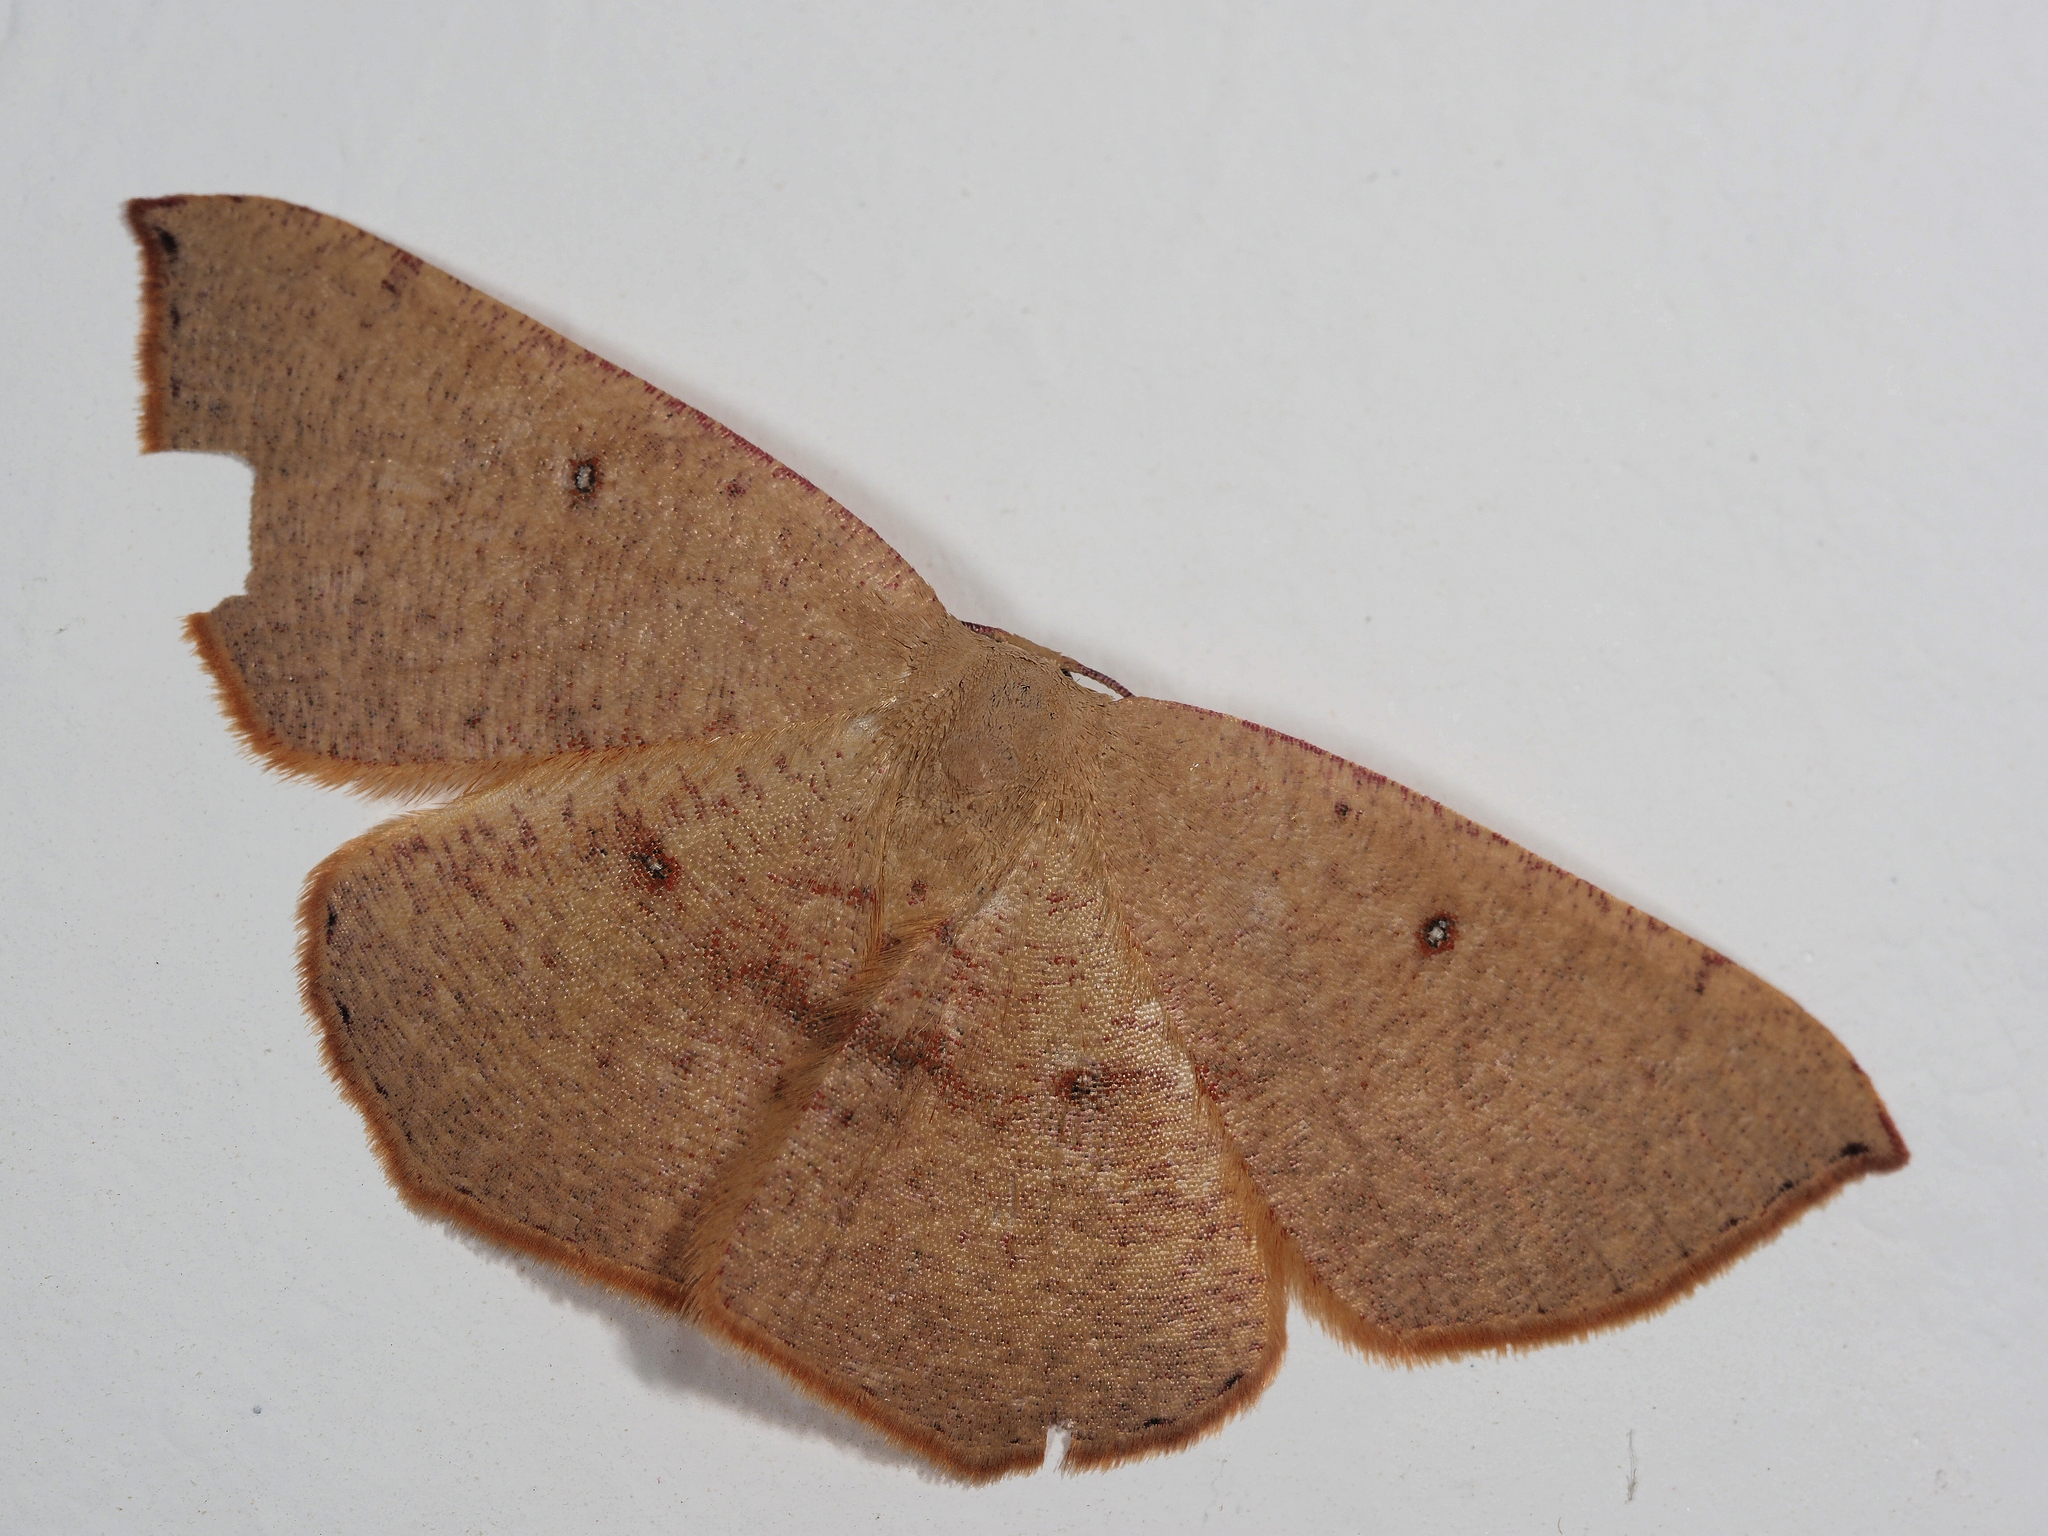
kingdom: Animalia
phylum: Arthropoda
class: Insecta
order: Lepidoptera
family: Geometridae
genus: Cyclophora
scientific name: Cyclophora puppillaria
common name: Blair's mocha
